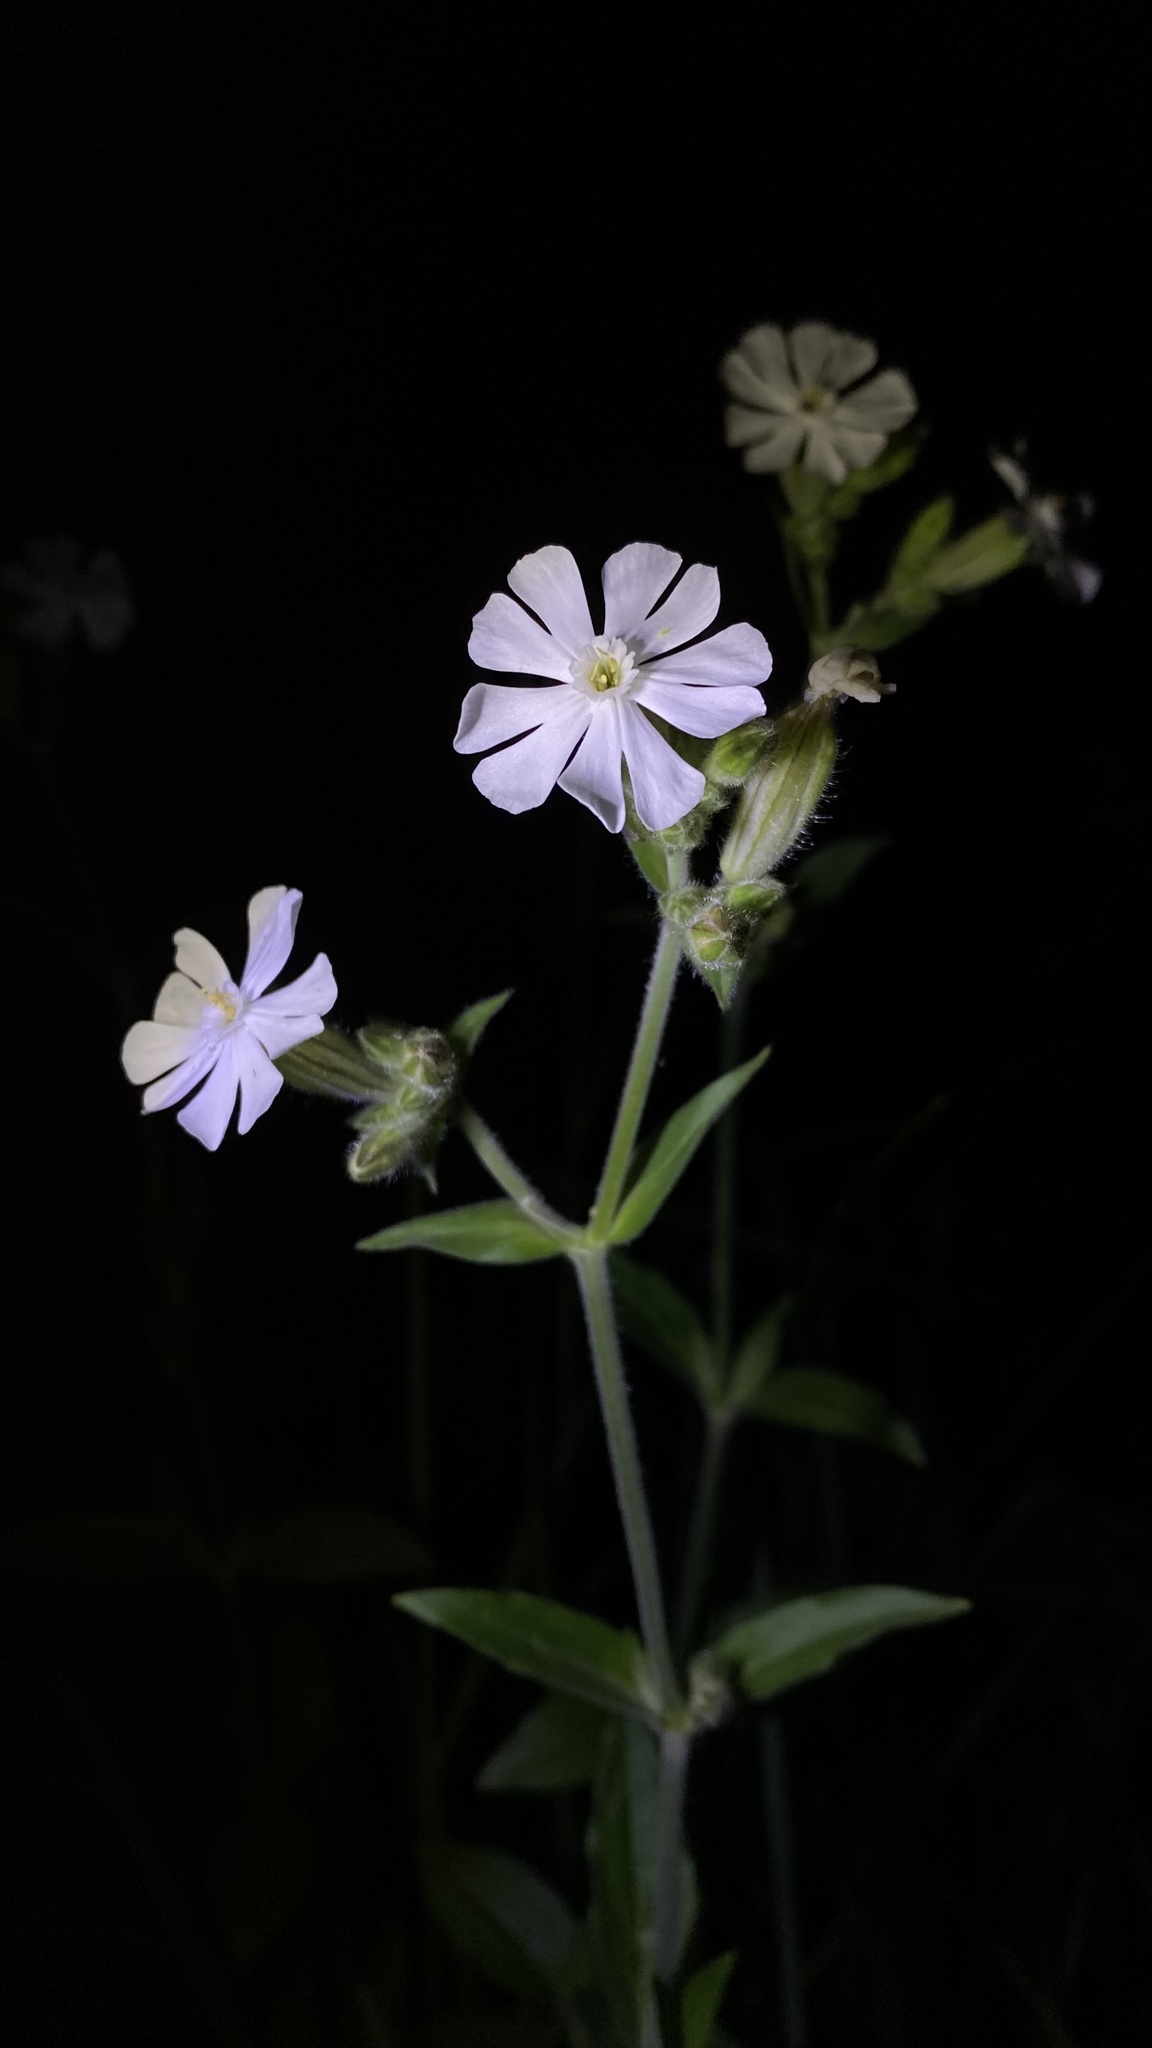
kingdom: Plantae
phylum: Tracheophyta
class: Magnoliopsida
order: Caryophyllales
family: Caryophyllaceae
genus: Silene
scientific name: Silene latifolia
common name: White campion
